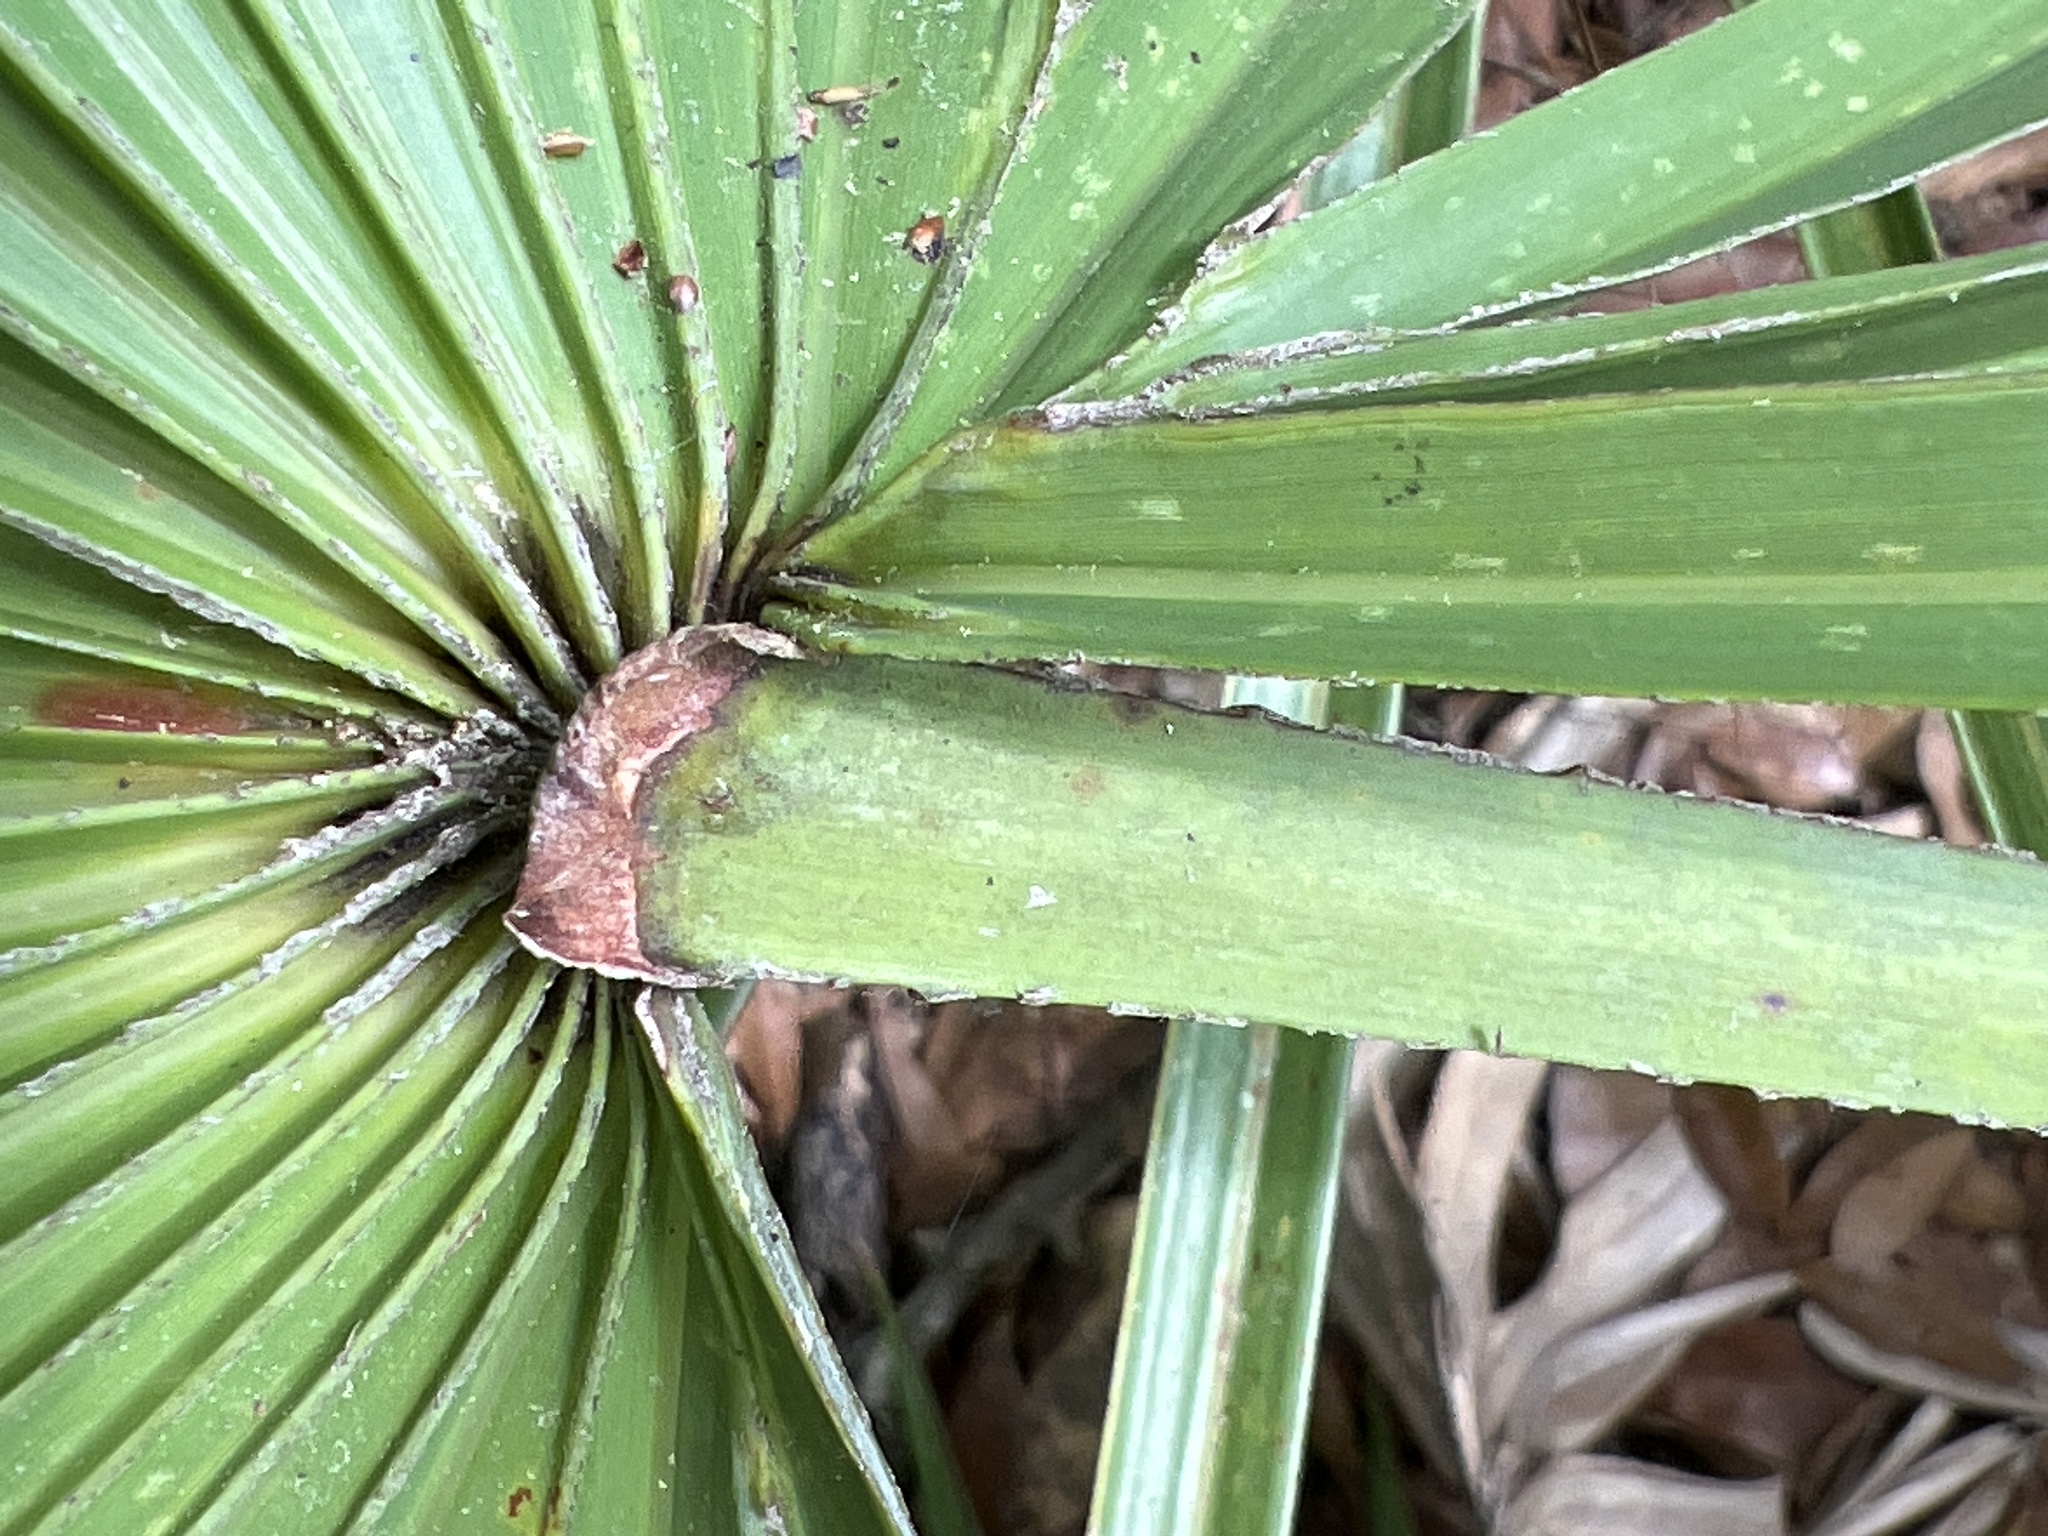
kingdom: Plantae
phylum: Tracheophyta
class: Liliopsida
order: Arecales
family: Arecaceae
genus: Serenoa
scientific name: Serenoa repens
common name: Saw-palmetto
